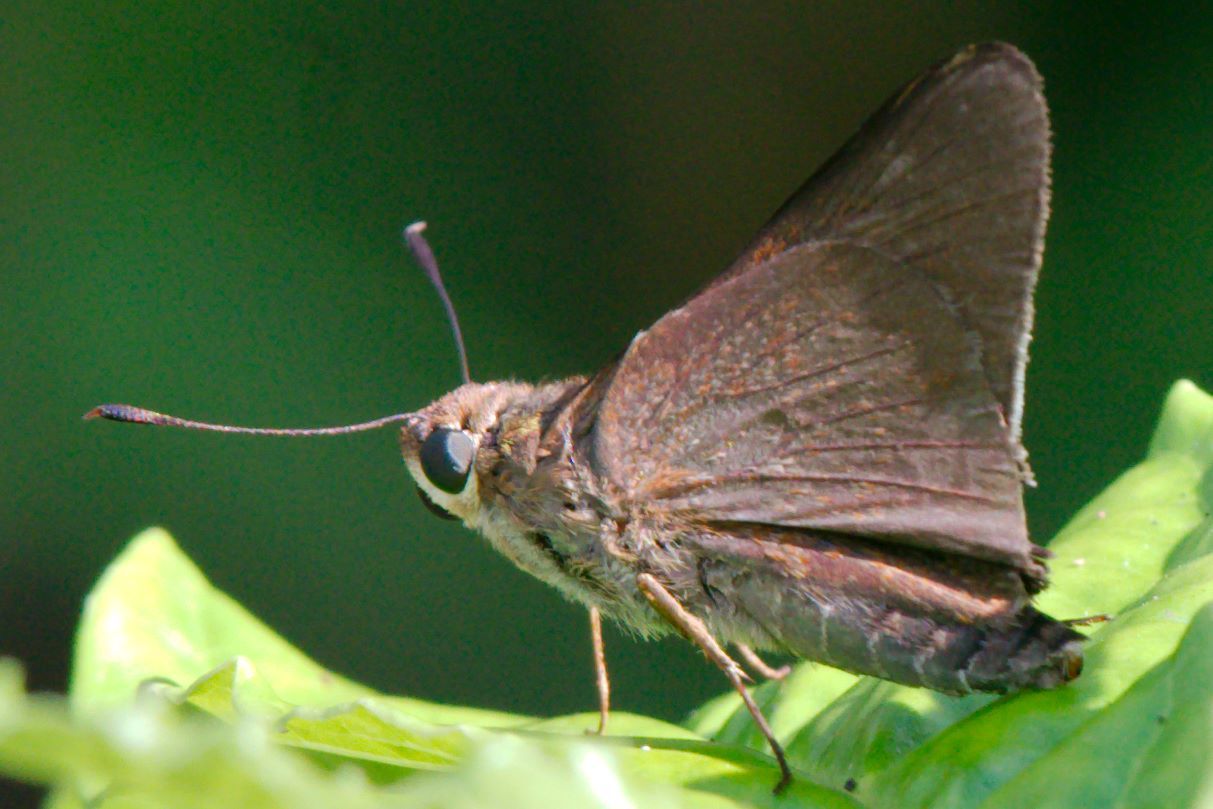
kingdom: Animalia
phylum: Arthropoda
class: Insecta
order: Lepidoptera
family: Hesperiidae
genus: Asbolis
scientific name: Asbolis capucinus
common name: Monk skipper
